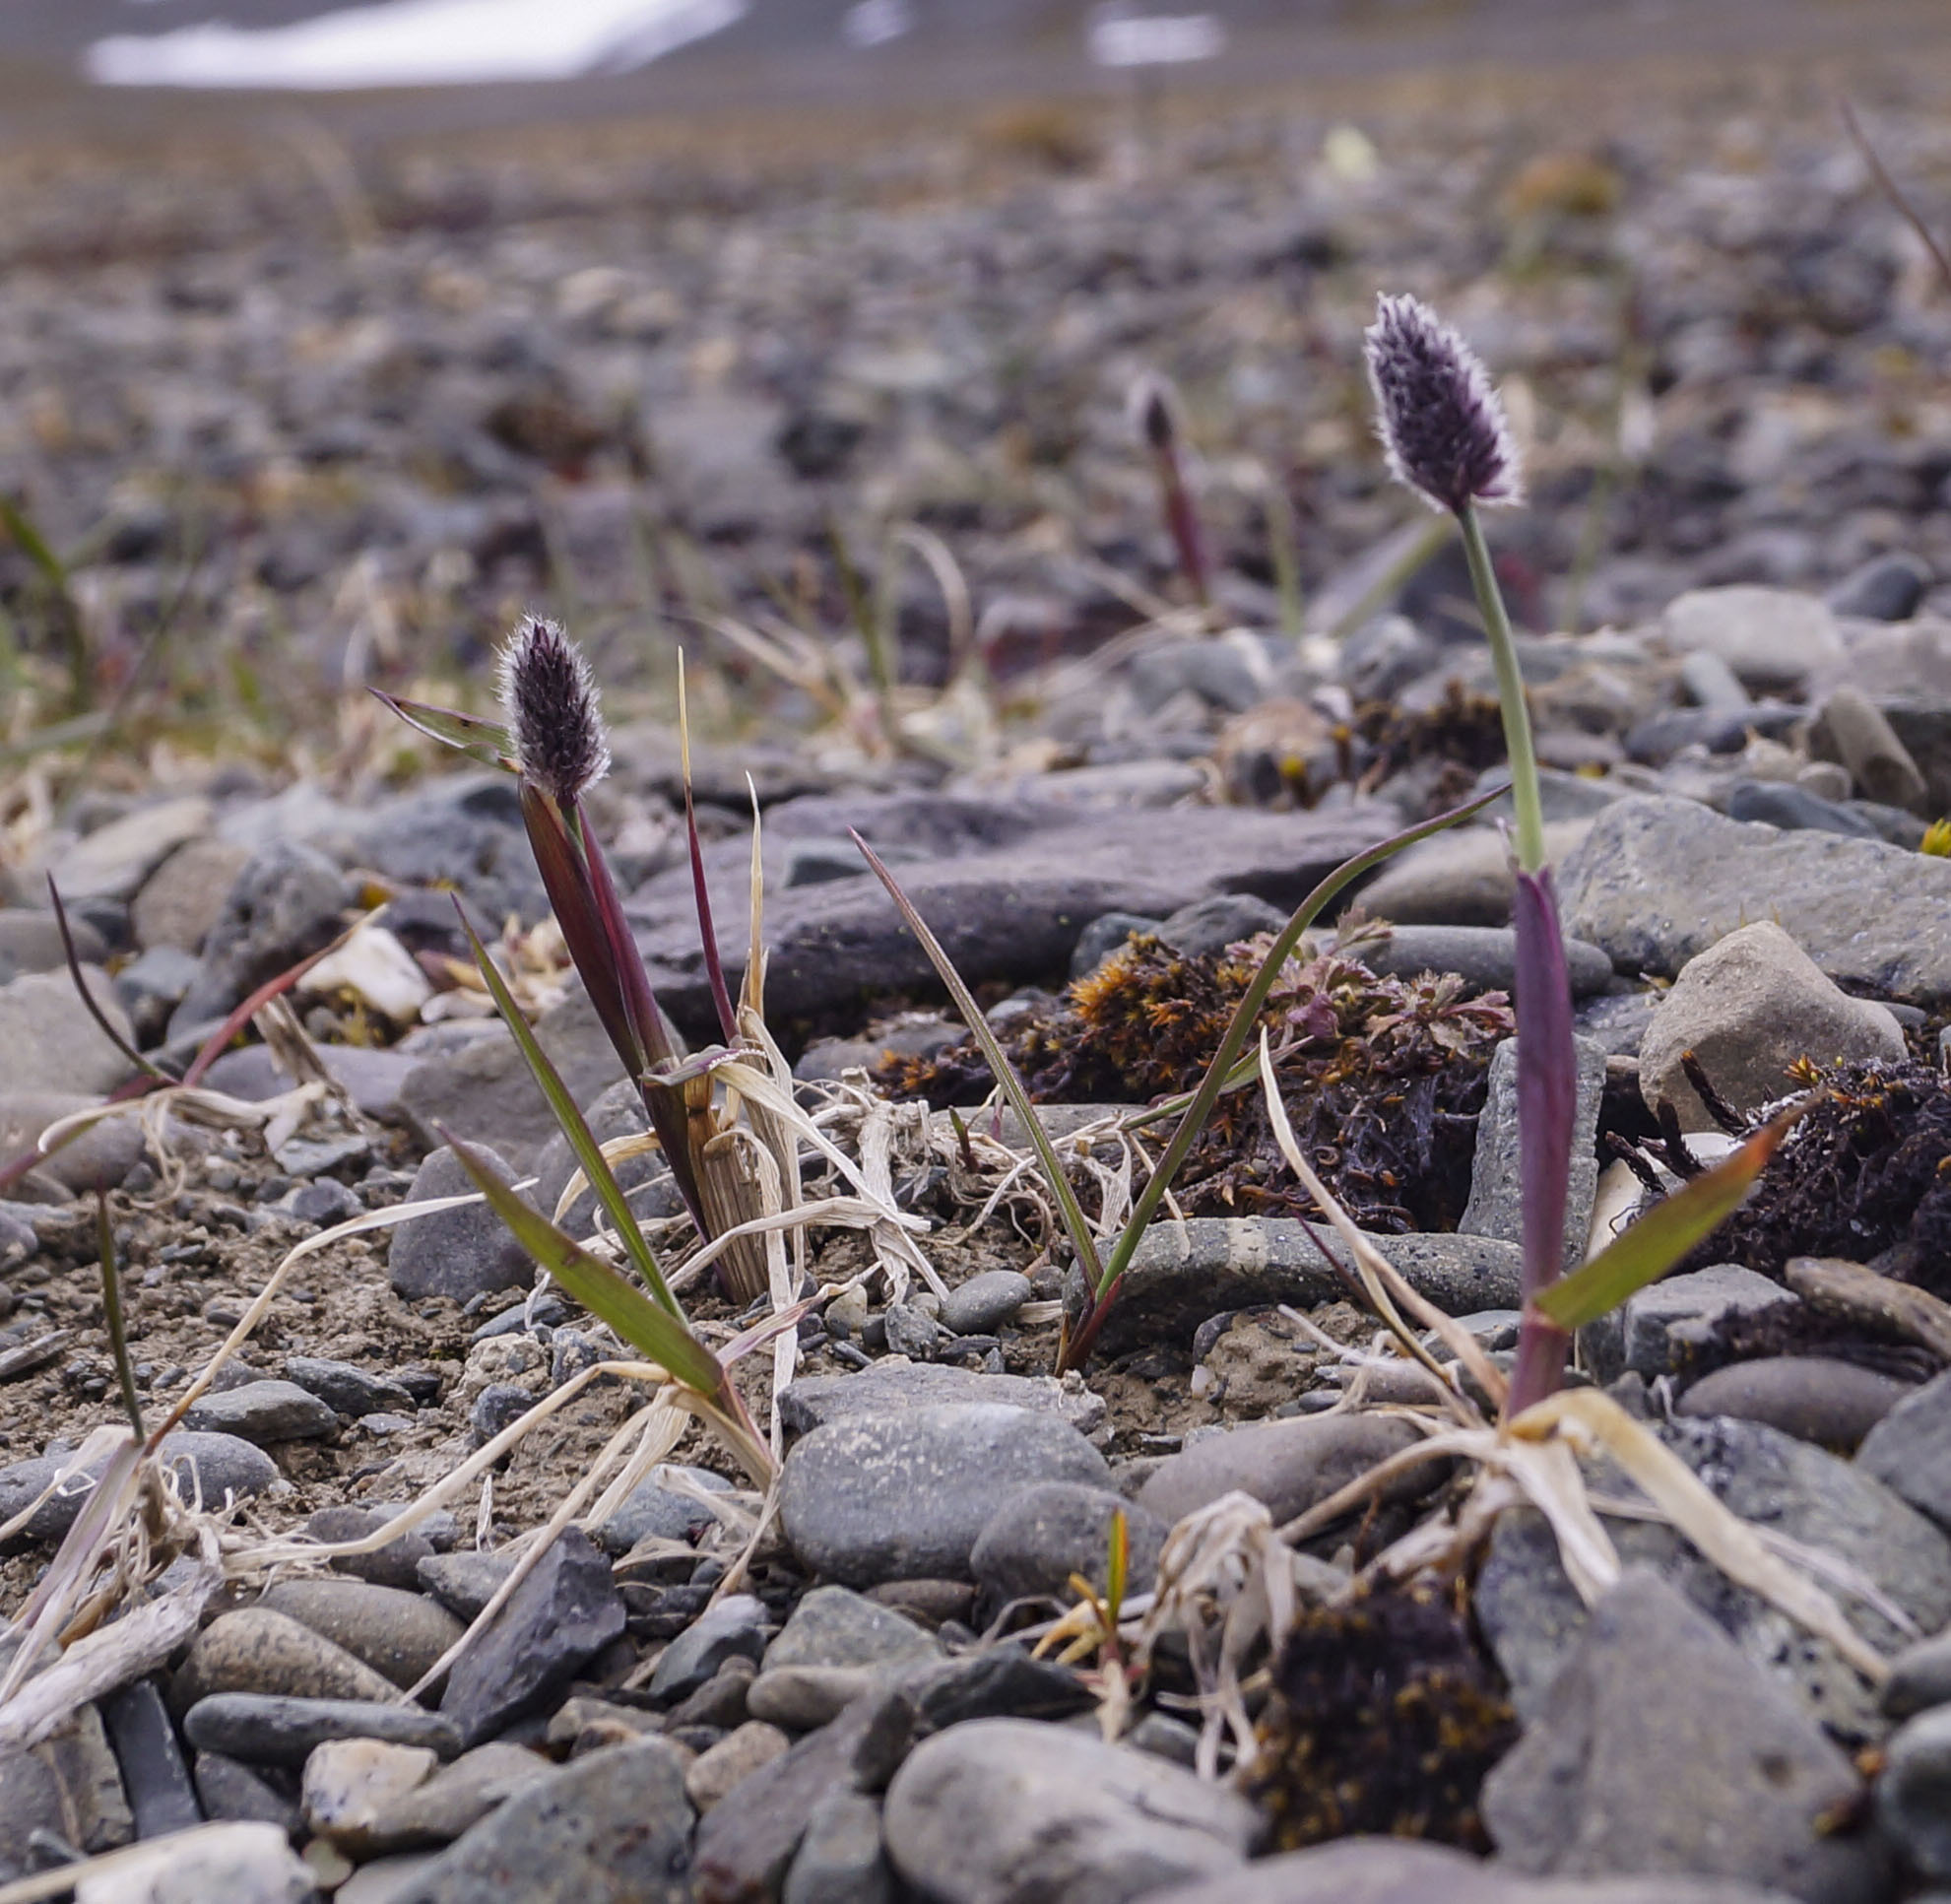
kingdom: Plantae
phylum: Tracheophyta
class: Liliopsida
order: Poales
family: Poaceae
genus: Alopecurus
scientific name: Alopecurus magellanicus
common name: Alpine foxtail
